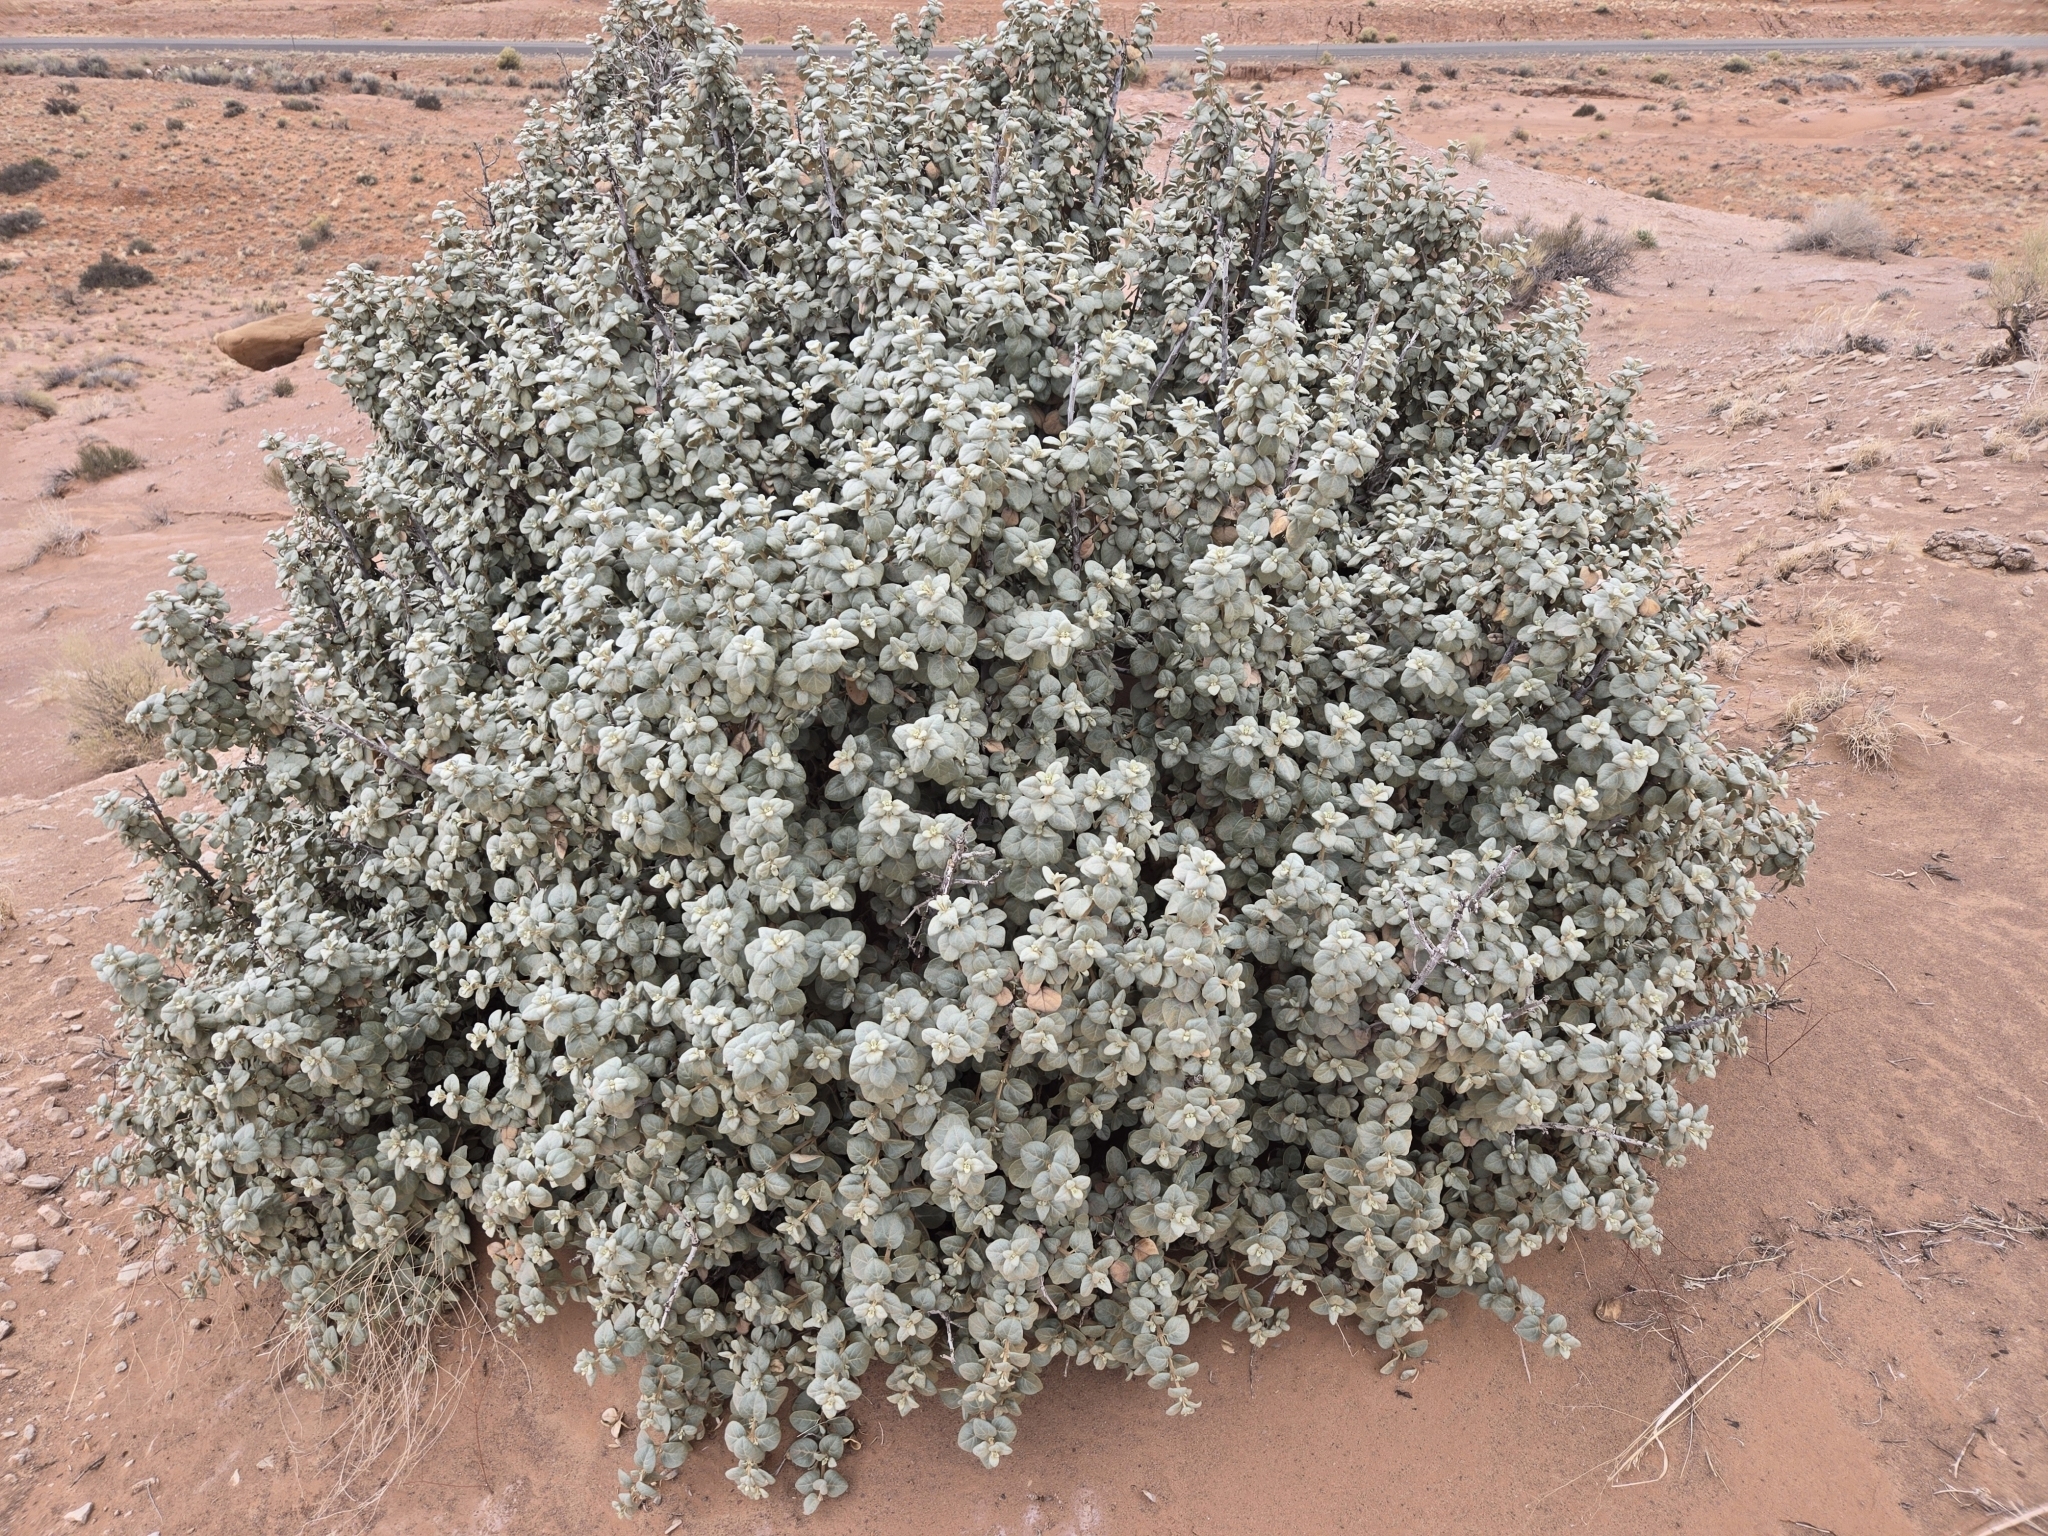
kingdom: Plantae
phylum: Tracheophyta
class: Magnoliopsida
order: Rosales
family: Elaeagnaceae
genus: Shepherdia
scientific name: Shepherdia rotundifolia
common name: Silverscale
